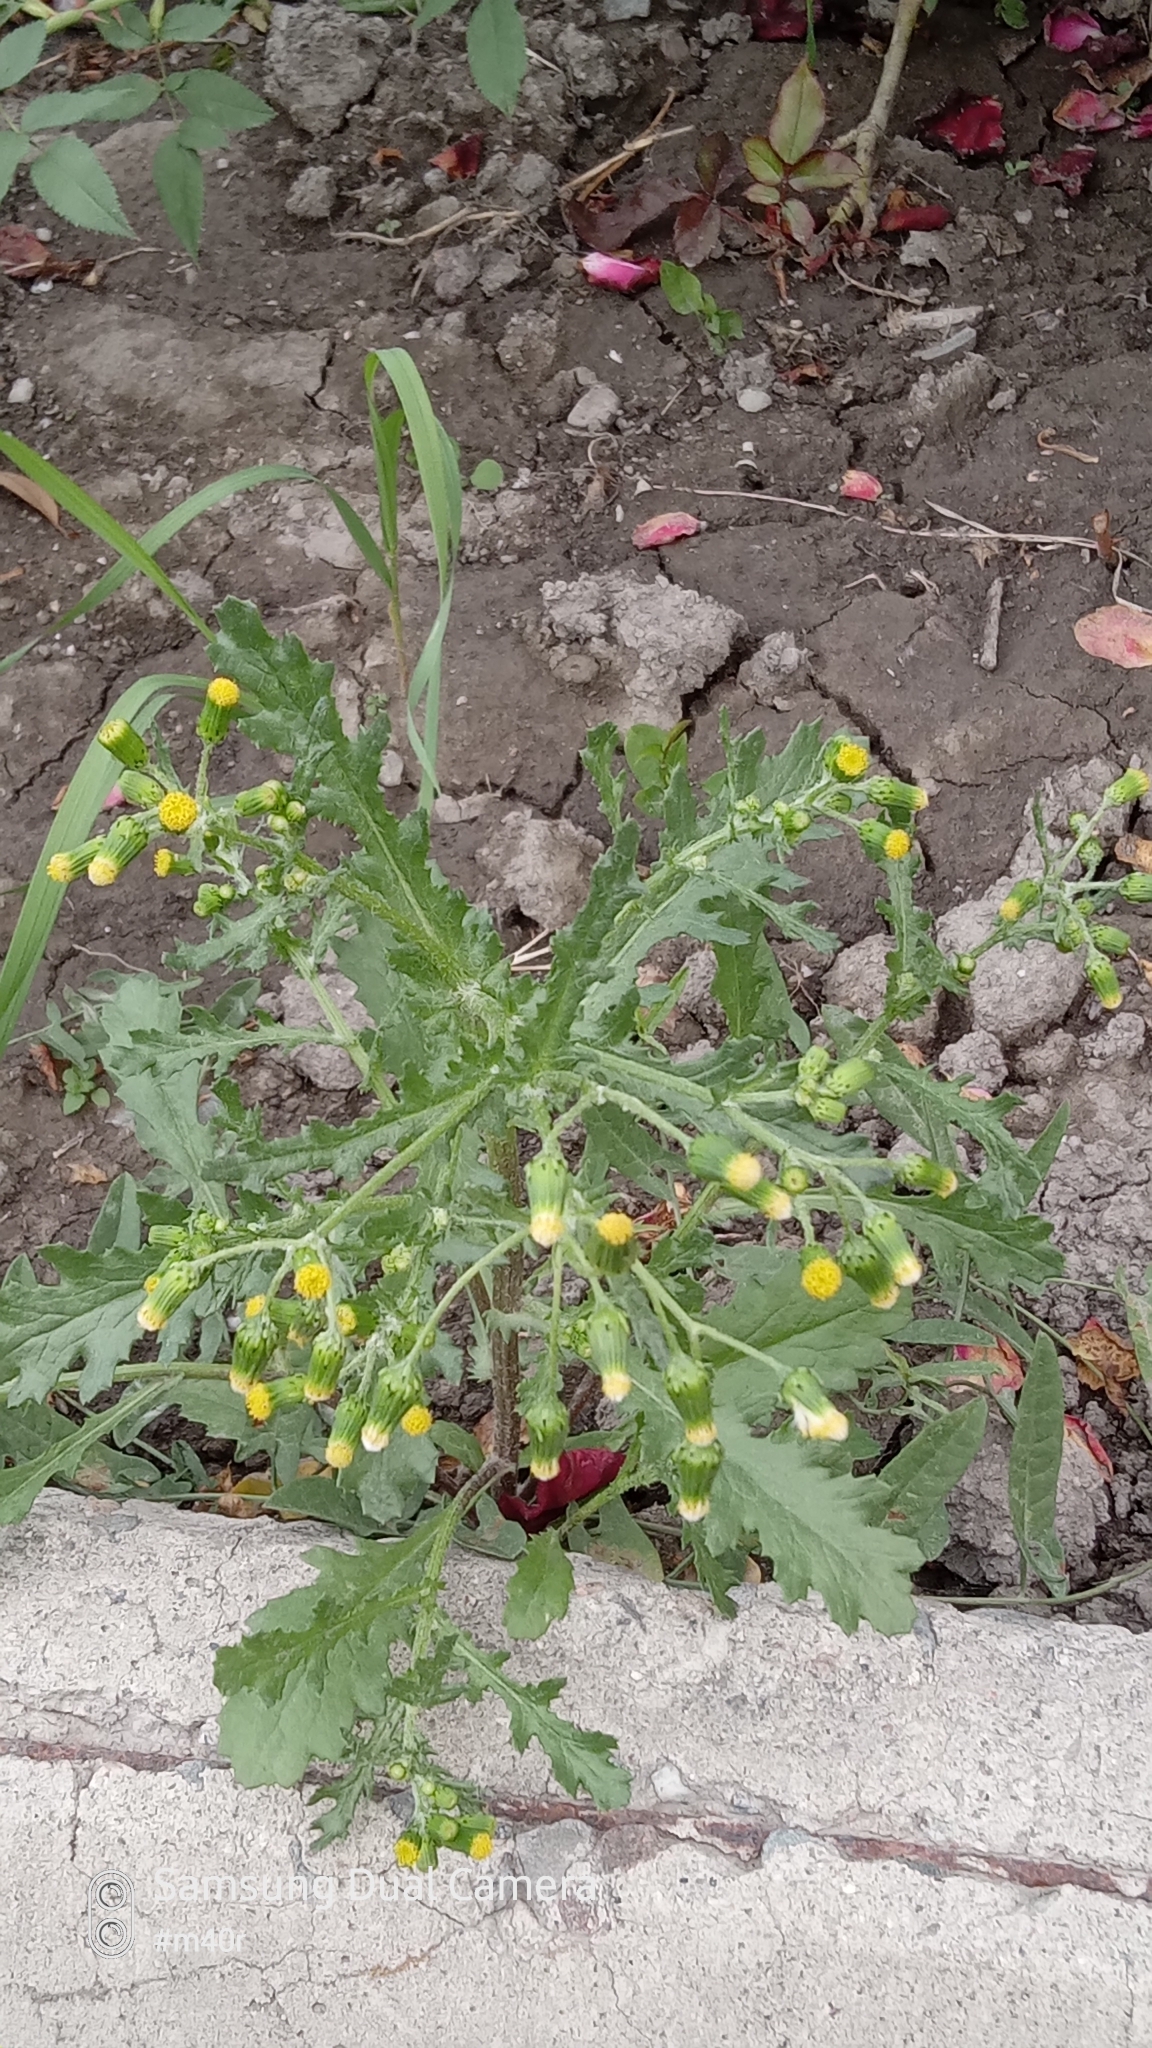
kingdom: Plantae
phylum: Tracheophyta
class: Magnoliopsida
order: Asterales
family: Asteraceae
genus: Senecio
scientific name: Senecio vulgaris
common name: Old-man-in-the-spring
